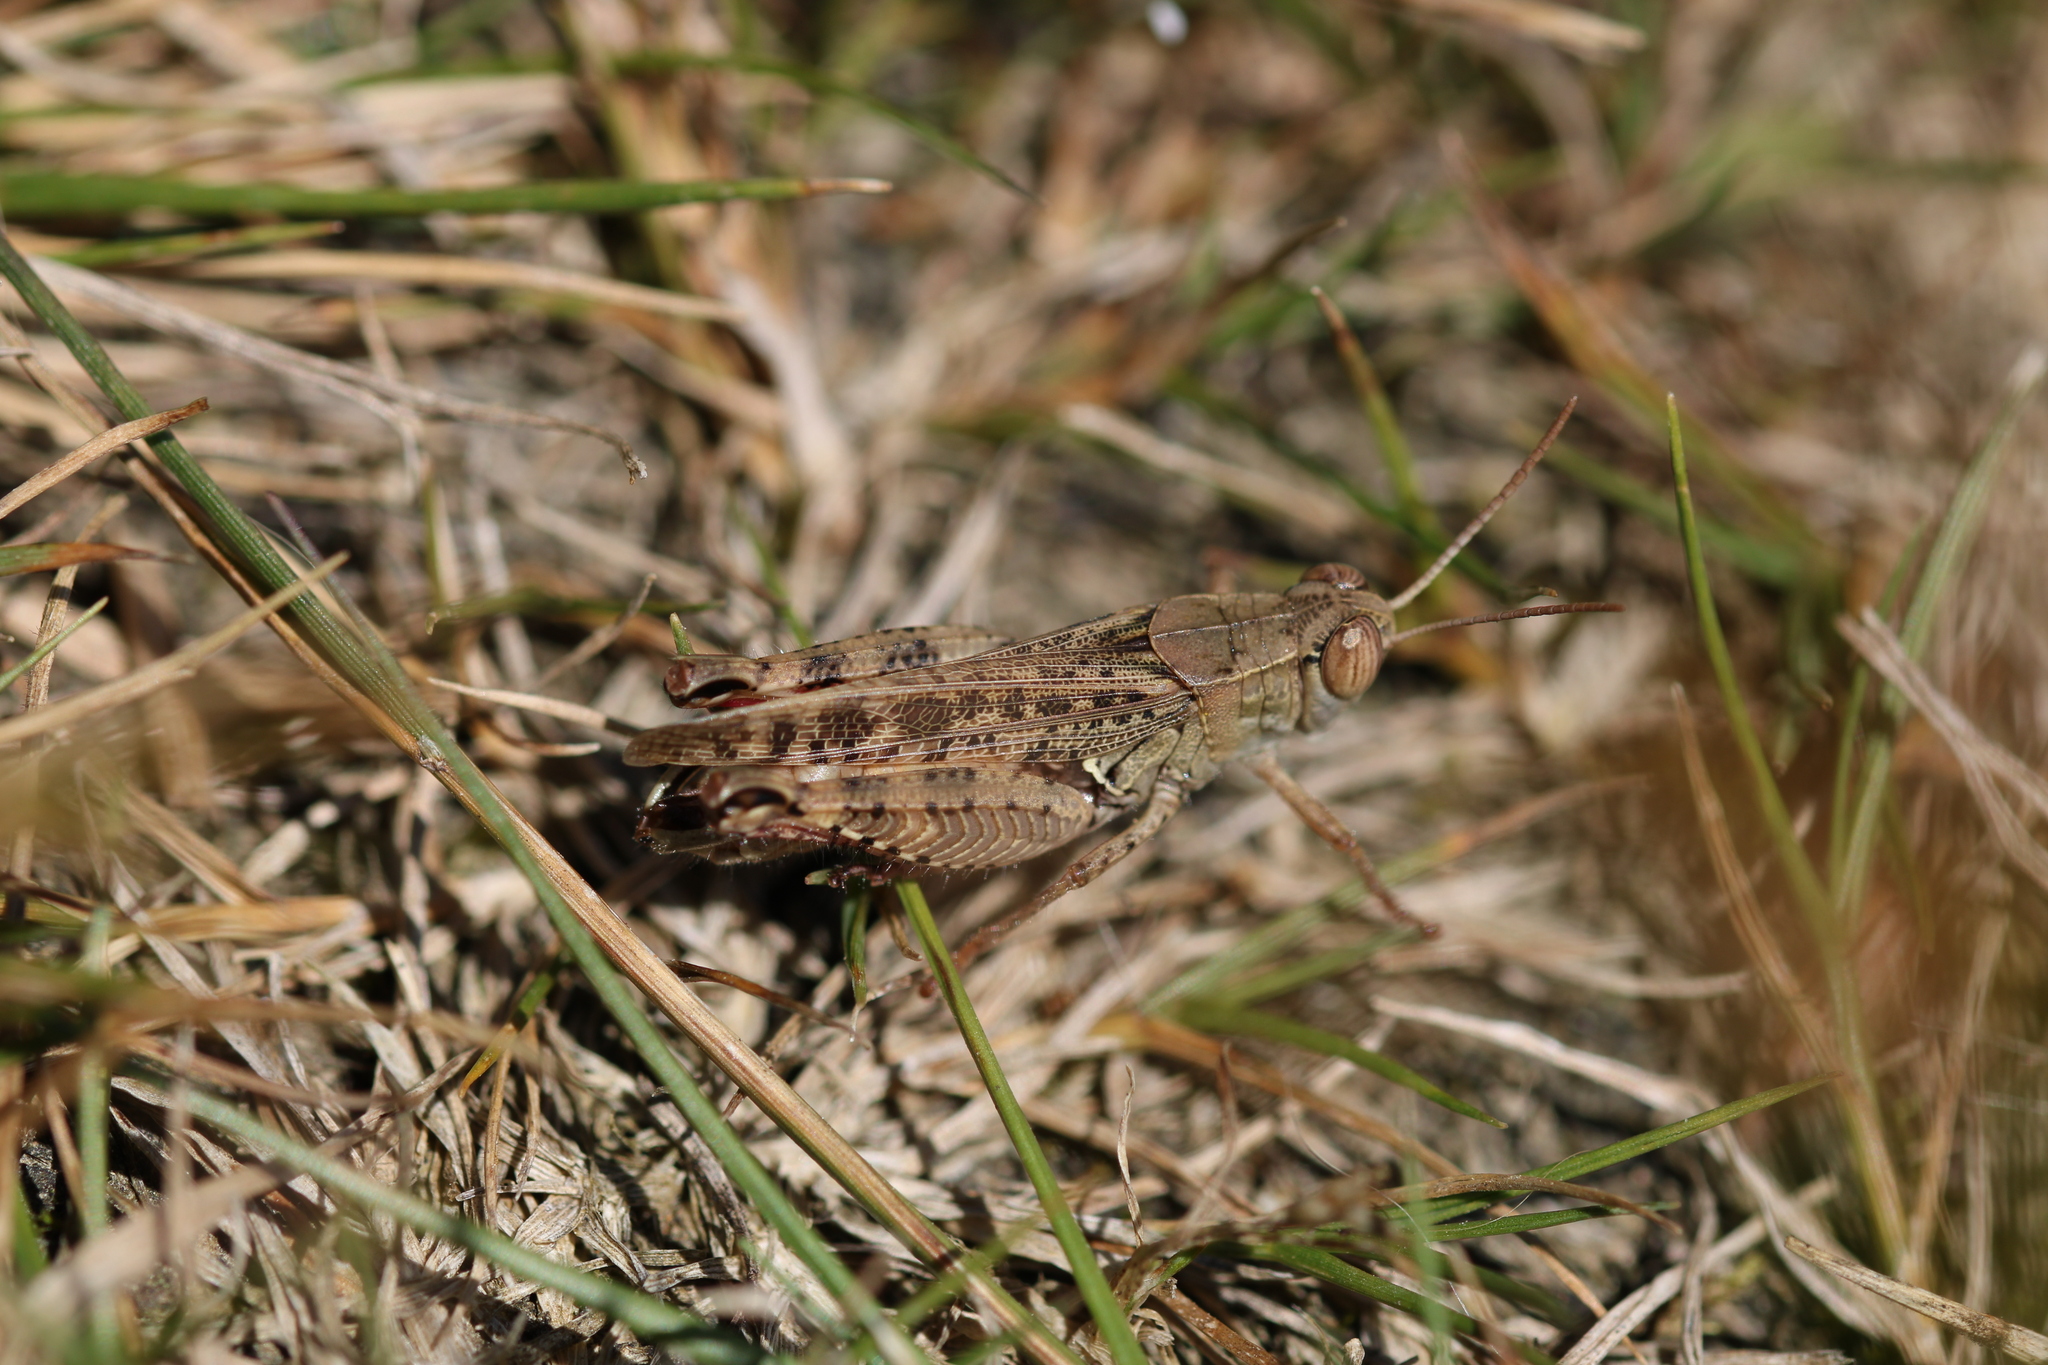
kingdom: Animalia
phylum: Arthropoda
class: Insecta
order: Orthoptera
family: Acrididae
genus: Calliptamus
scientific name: Calliptamus italicus
